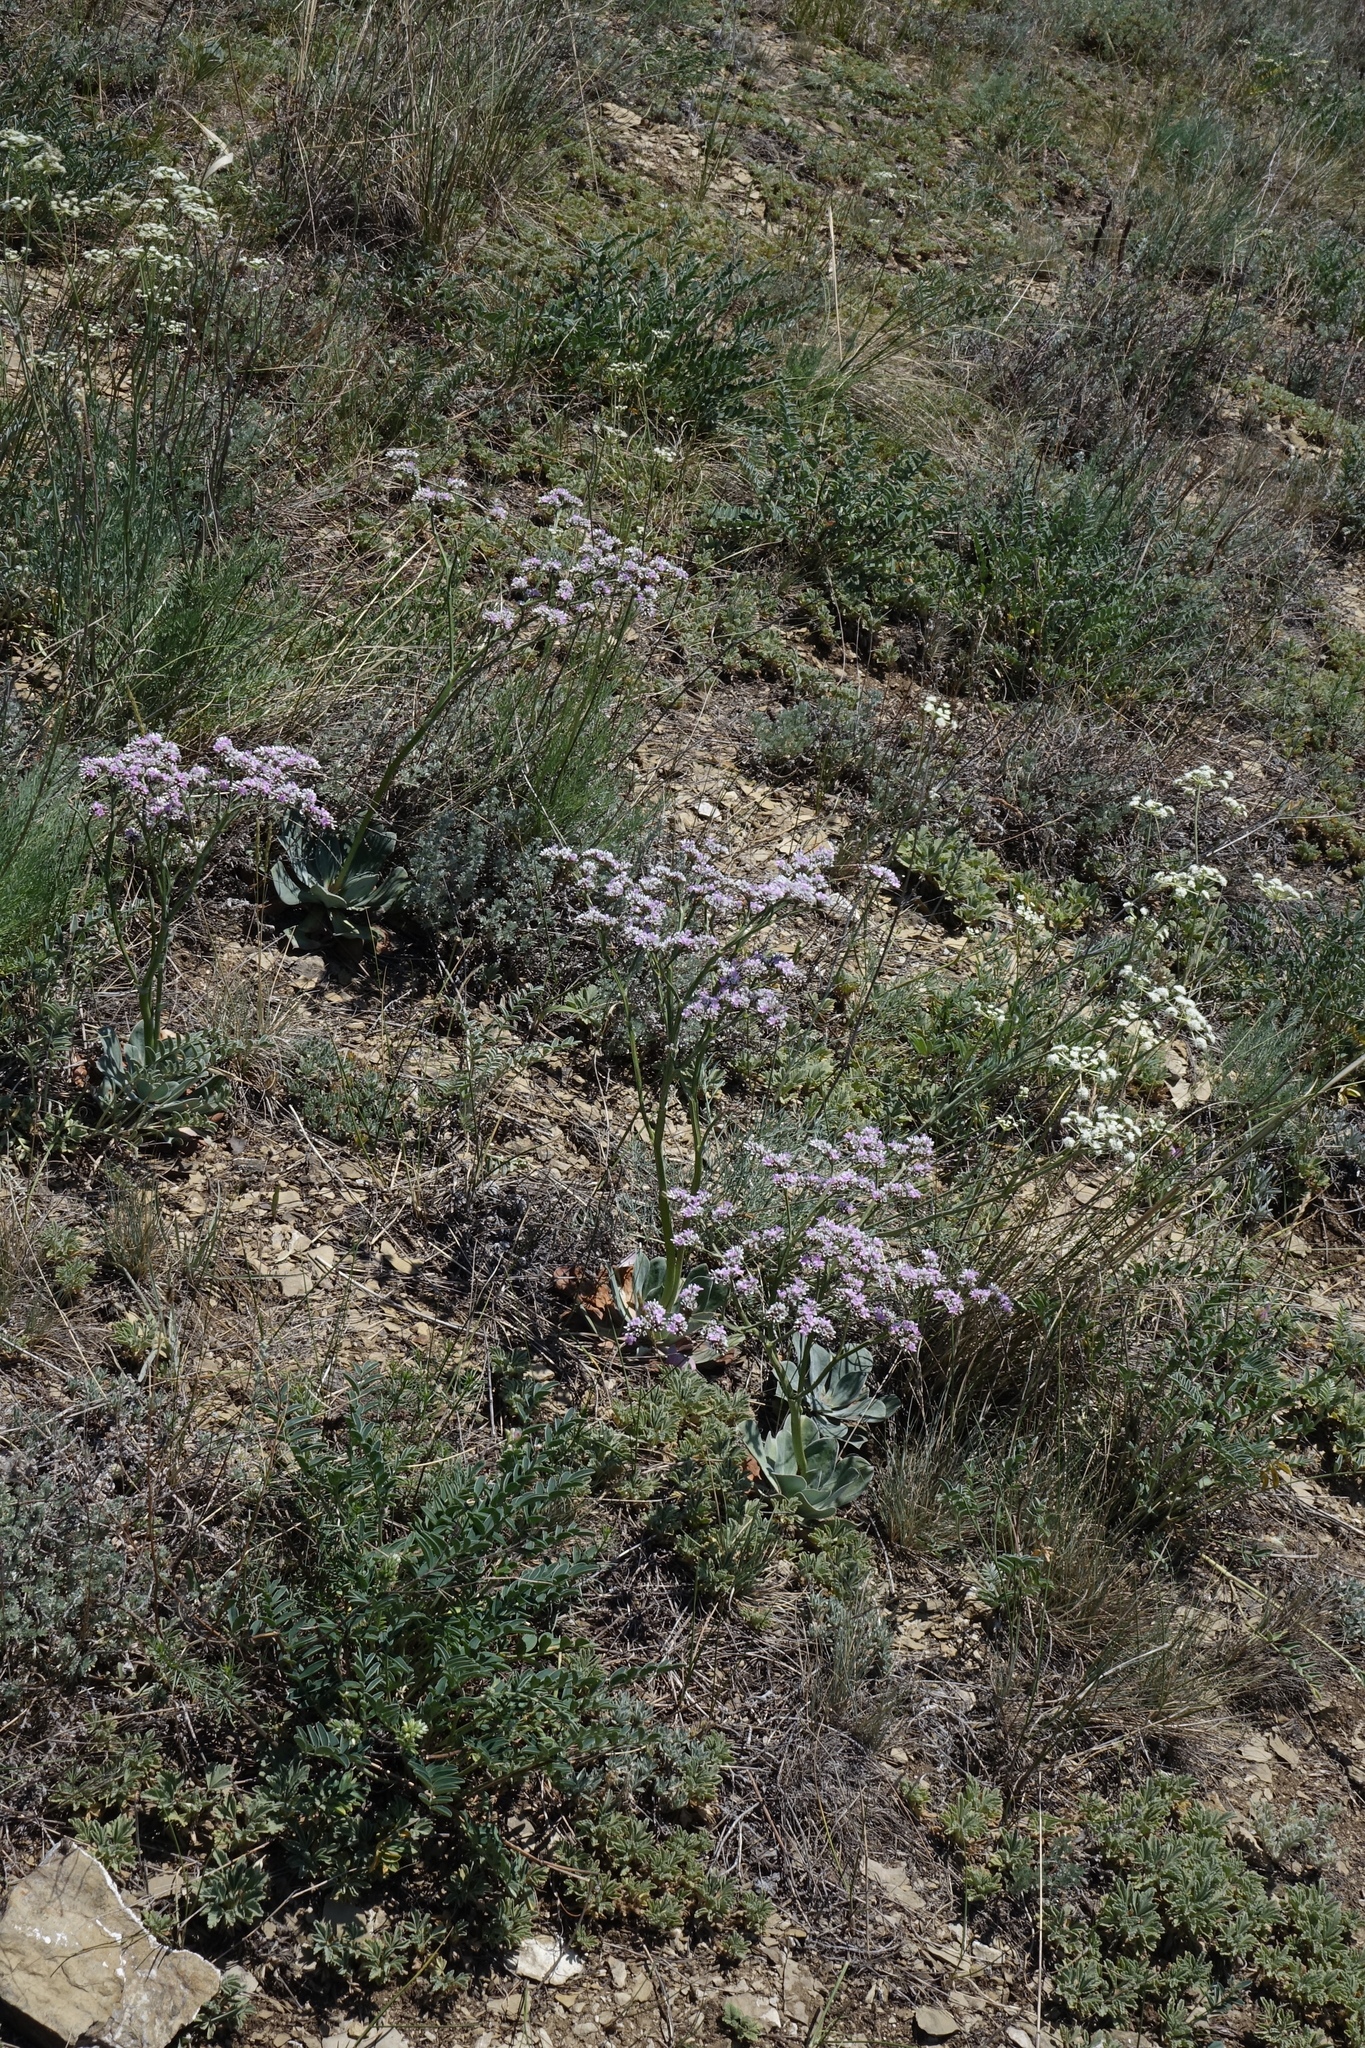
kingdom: Plantae
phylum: Tracheophyta
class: Magnoliopsida
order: Caryophyllales
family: Plumbaginaceae
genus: Goniolimon
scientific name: Goniolimon speciosum
